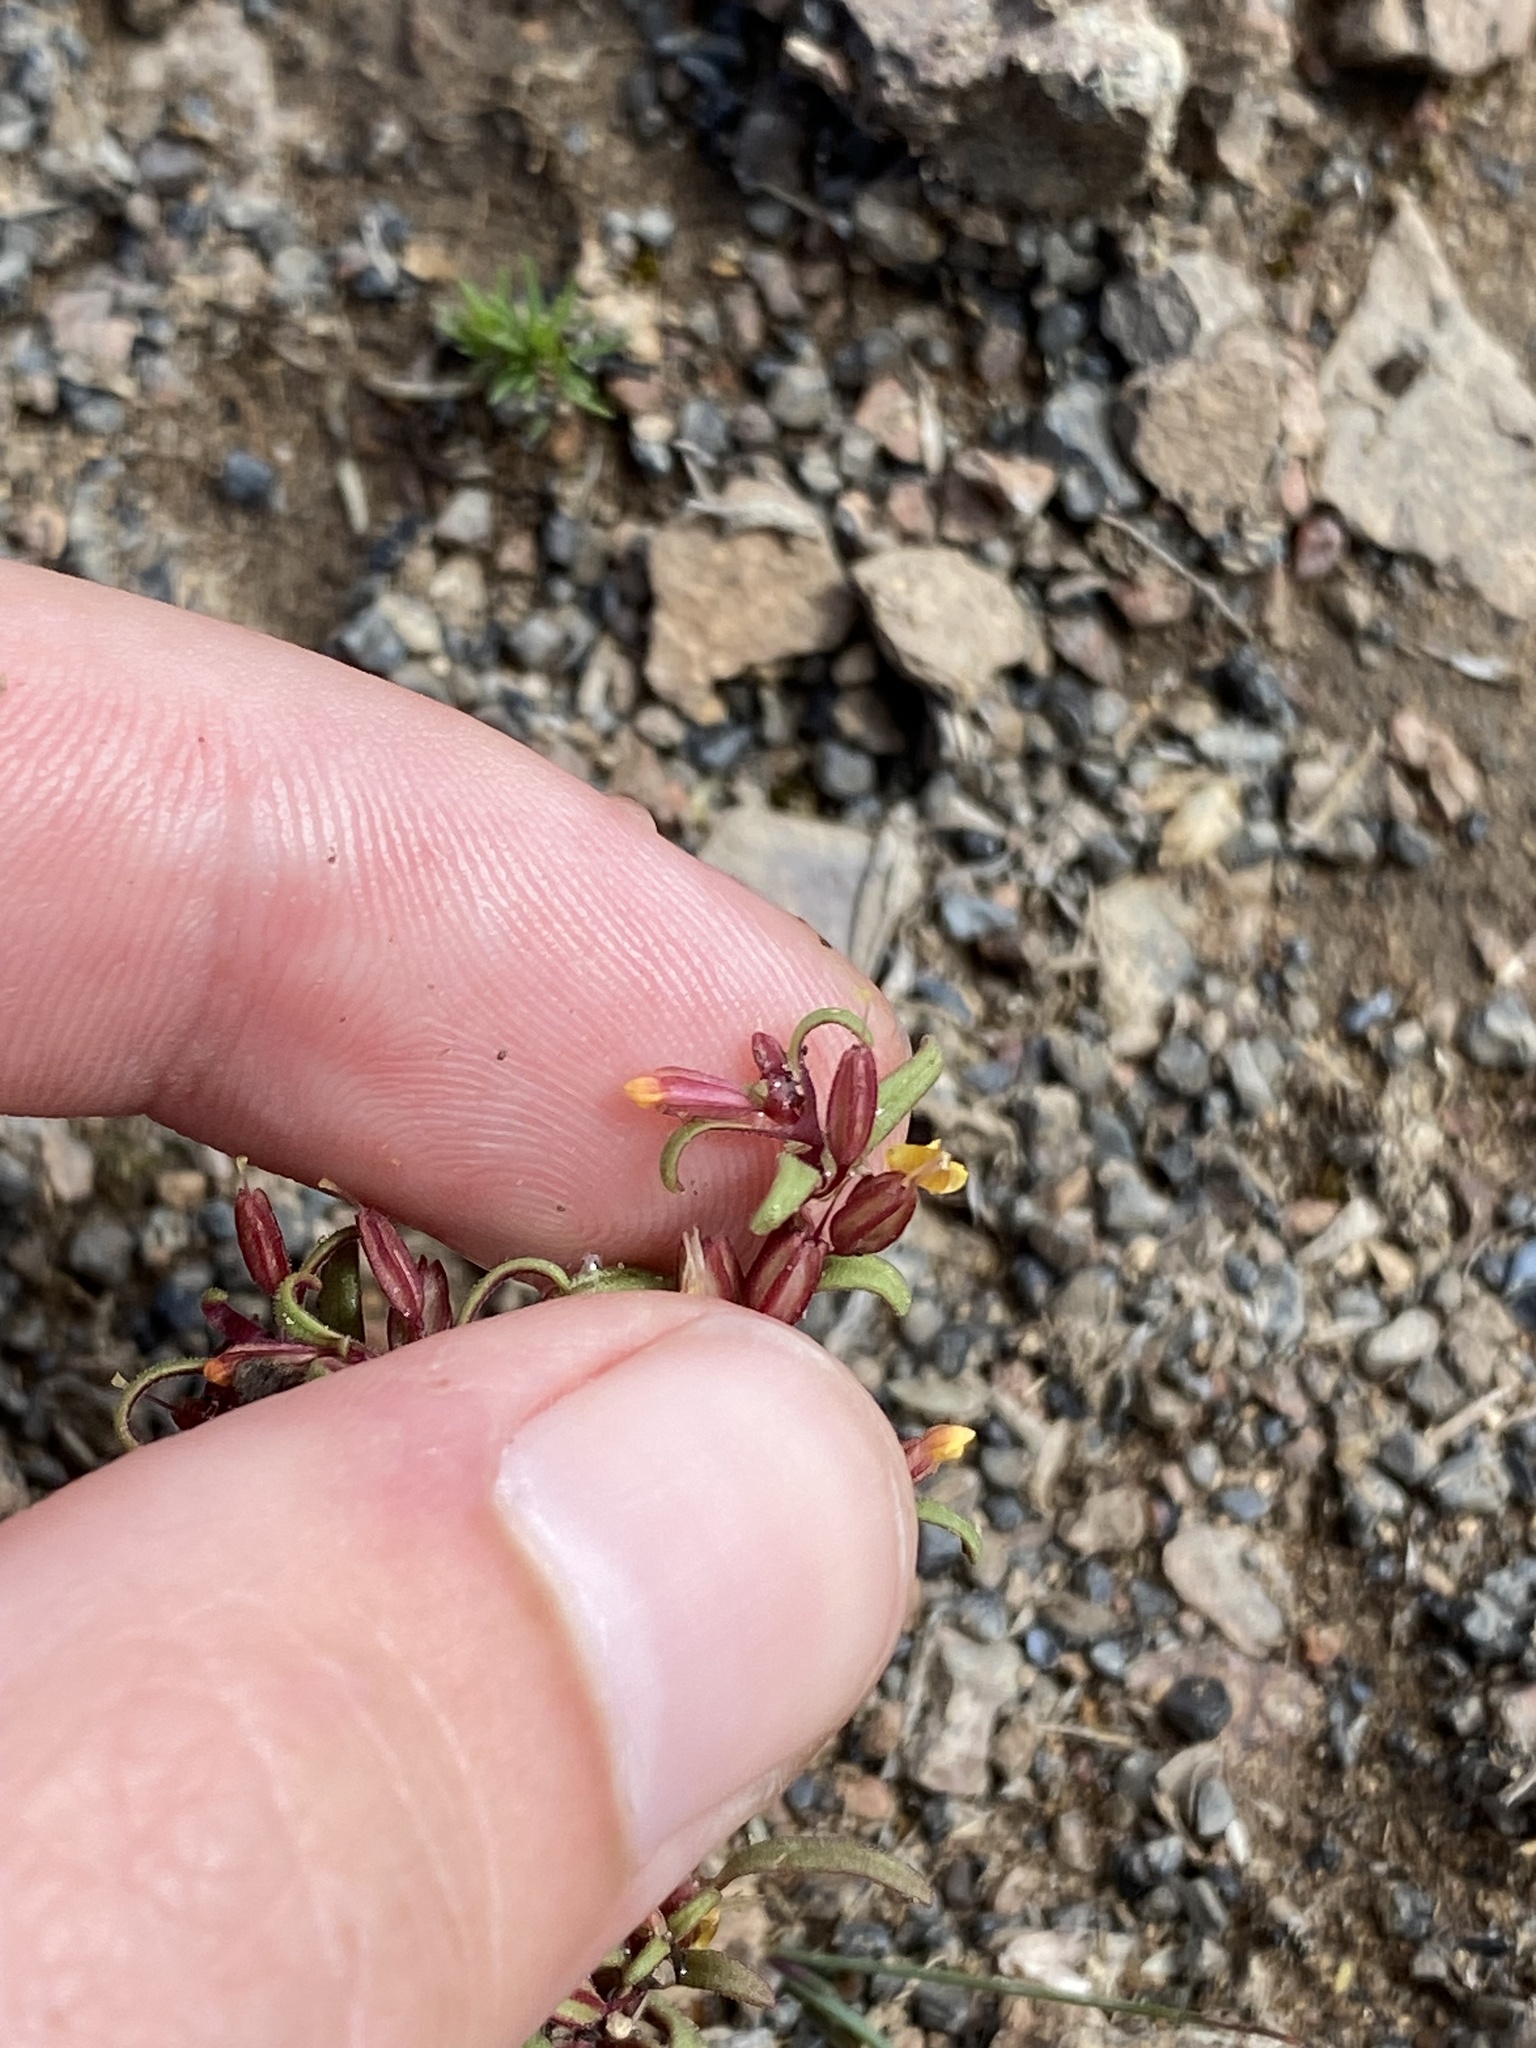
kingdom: Plantae
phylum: Tracheophyta
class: Magnoliopsida
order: Lamiales
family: Phrymaceae
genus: Erythranthe
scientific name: Erythranthe suksdorfii
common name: Suksdorf's monkeyflower
